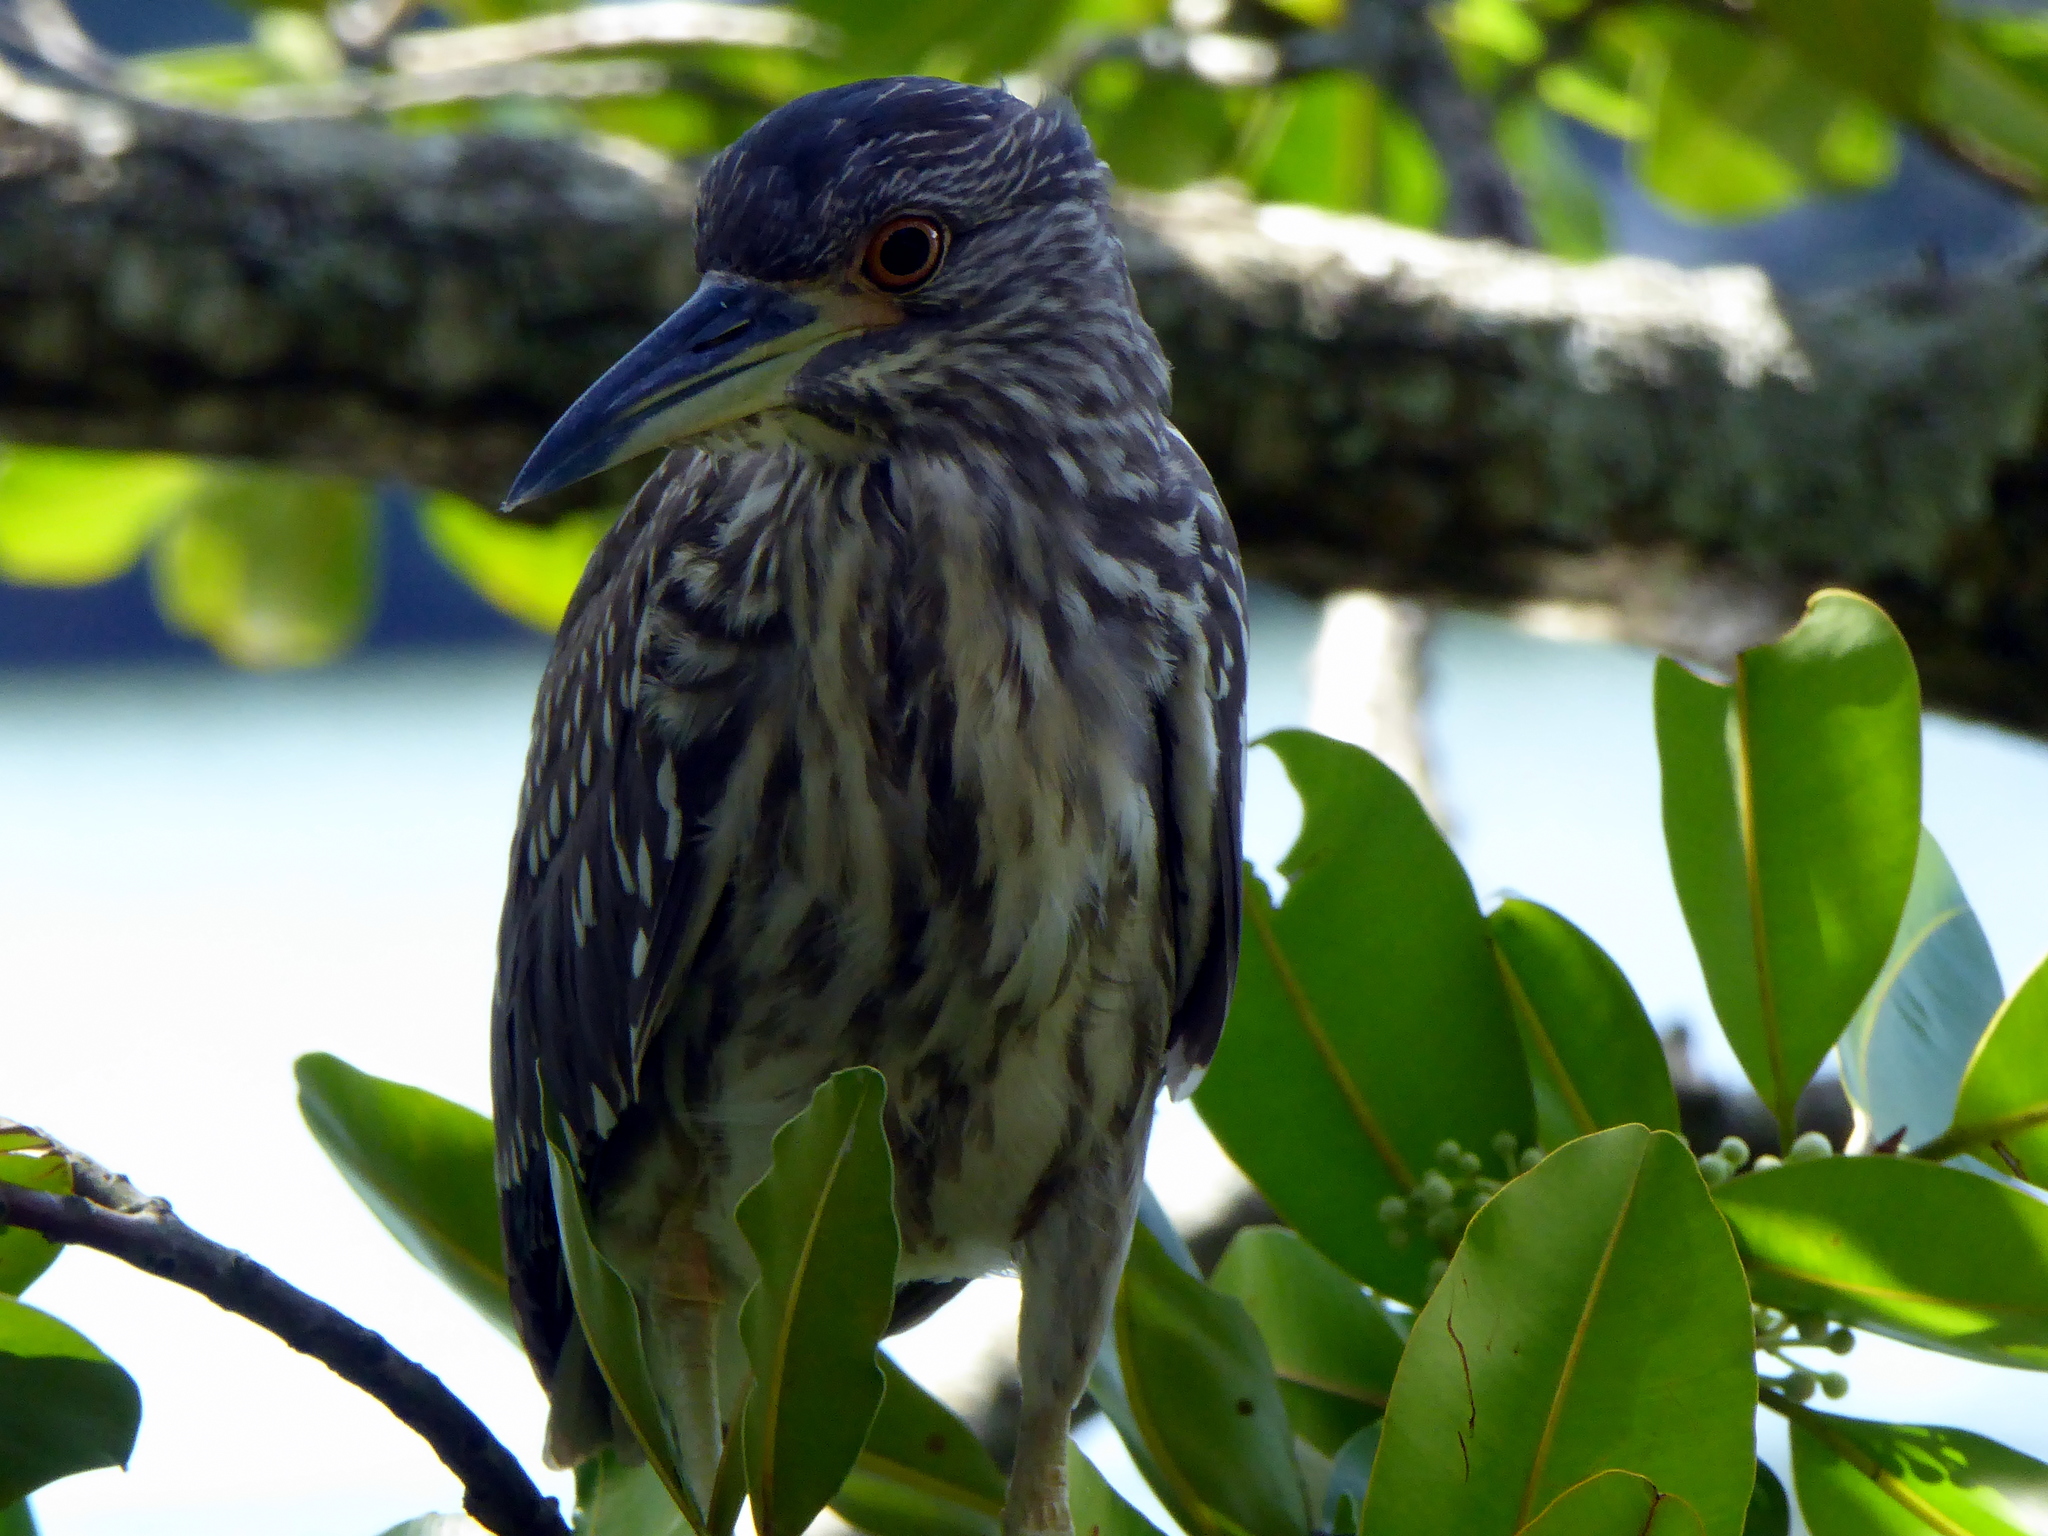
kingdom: Animalia
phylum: Chordata
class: Aves
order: Pelecaniformes
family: Ardeidae
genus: Nycticorax
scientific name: Nycticorax nycticorax
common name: Black-crowned night heron
